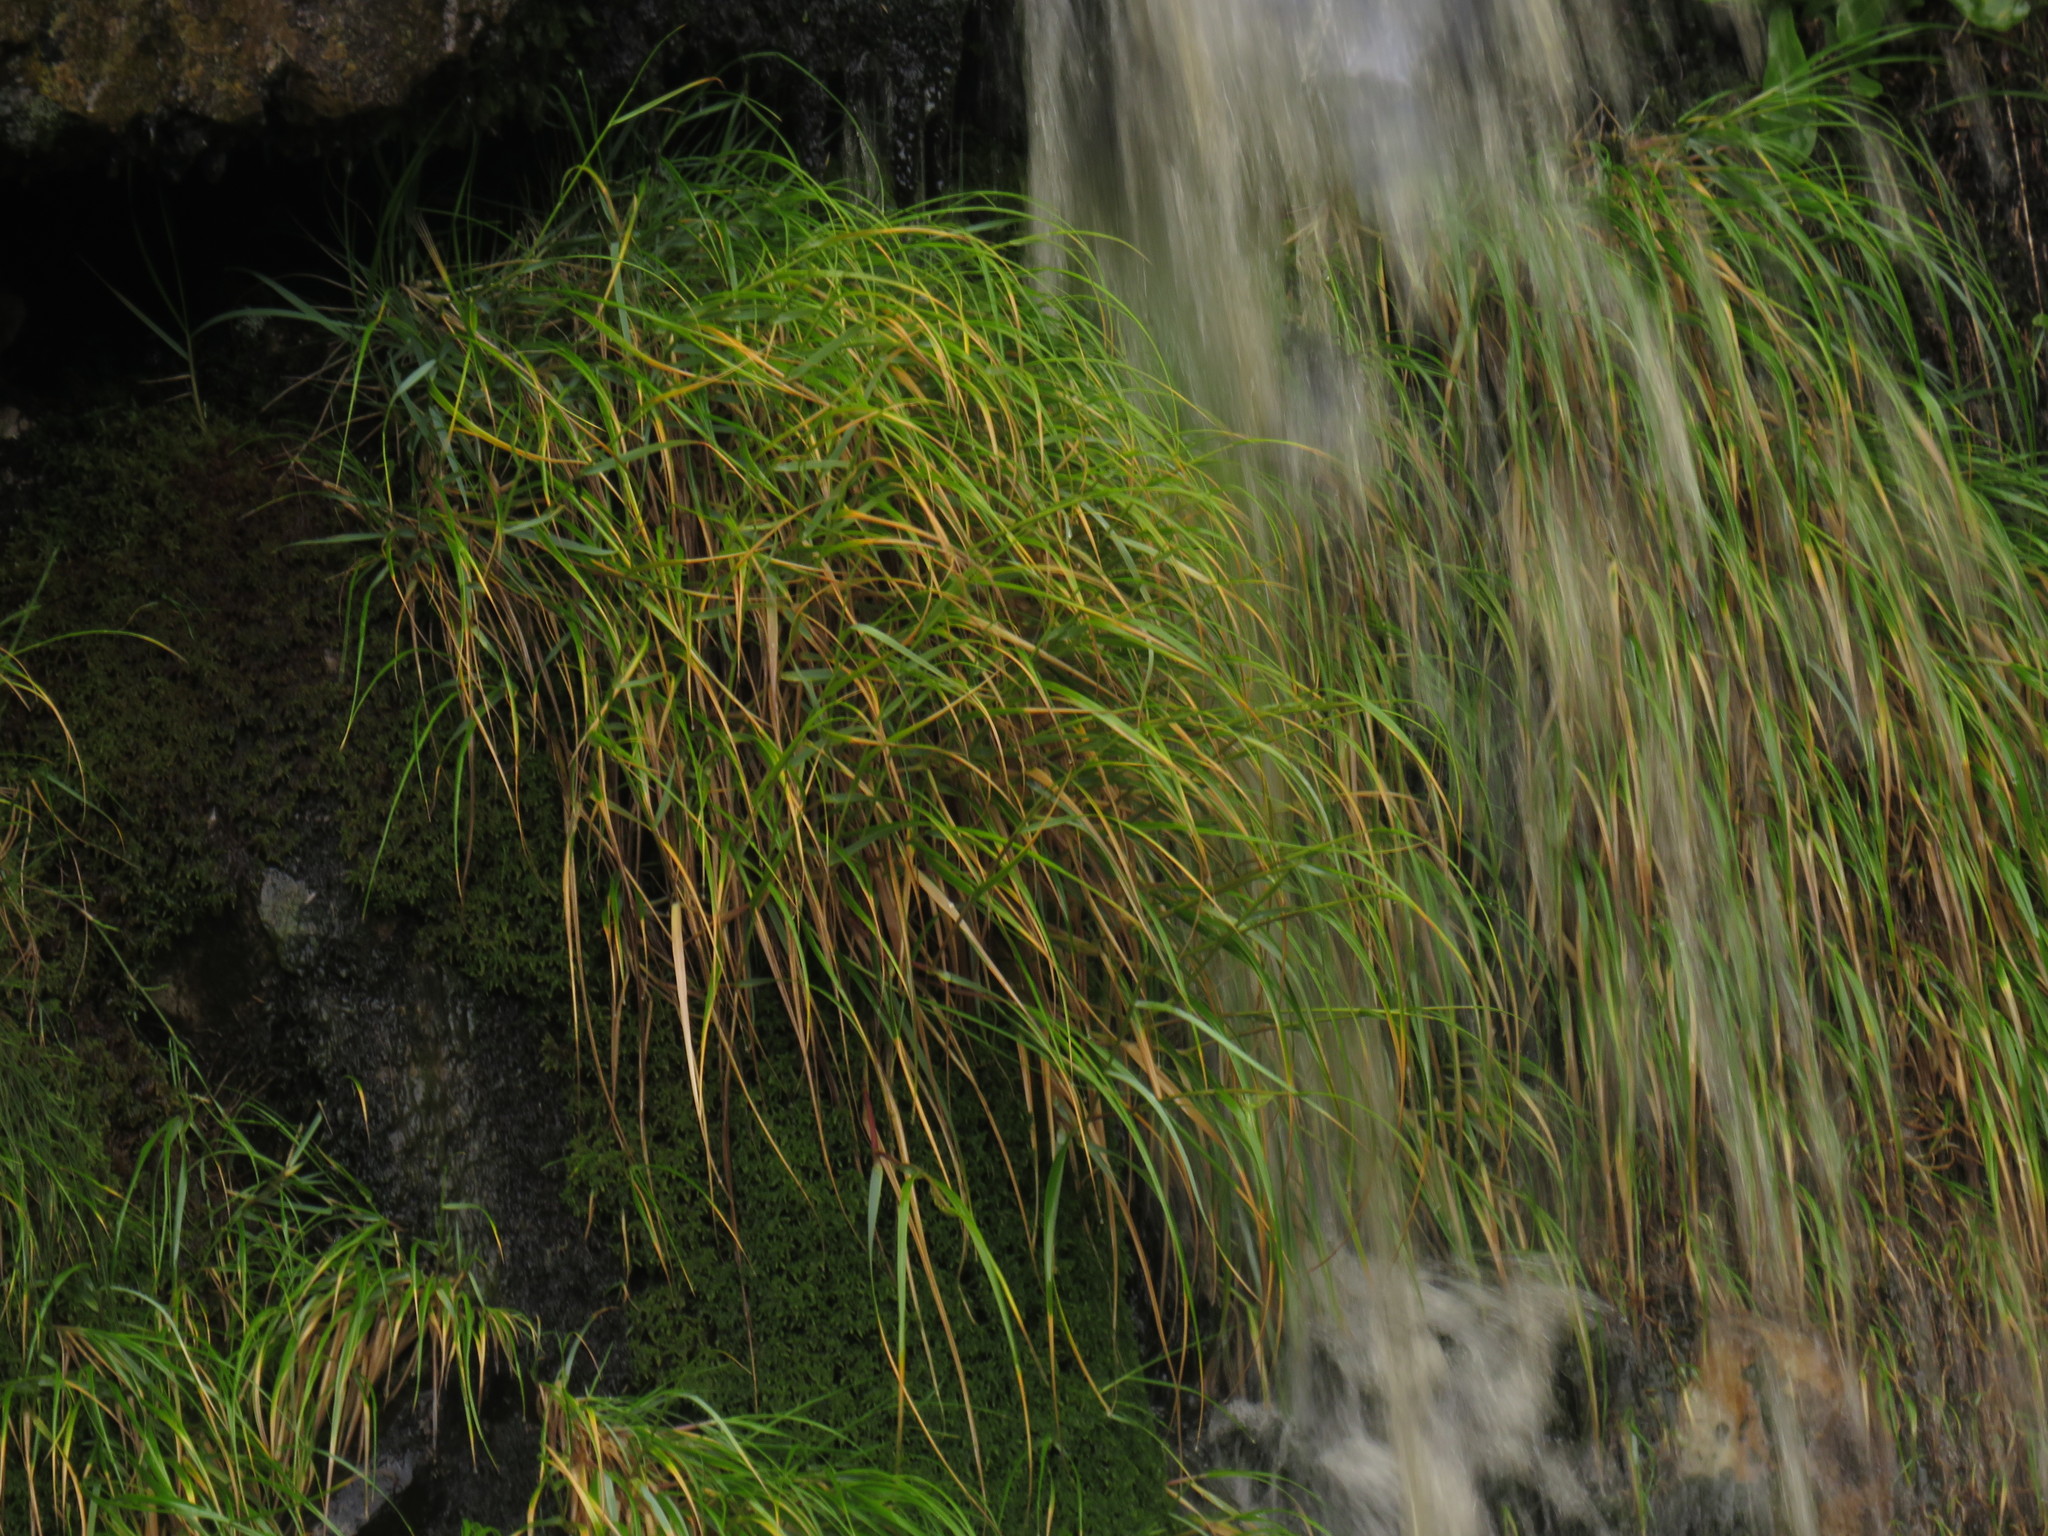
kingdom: Plantae
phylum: Tracheophyta
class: Liliopsida
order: Poales
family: Poaceae
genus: Pentameris
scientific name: Pentameris capensis
